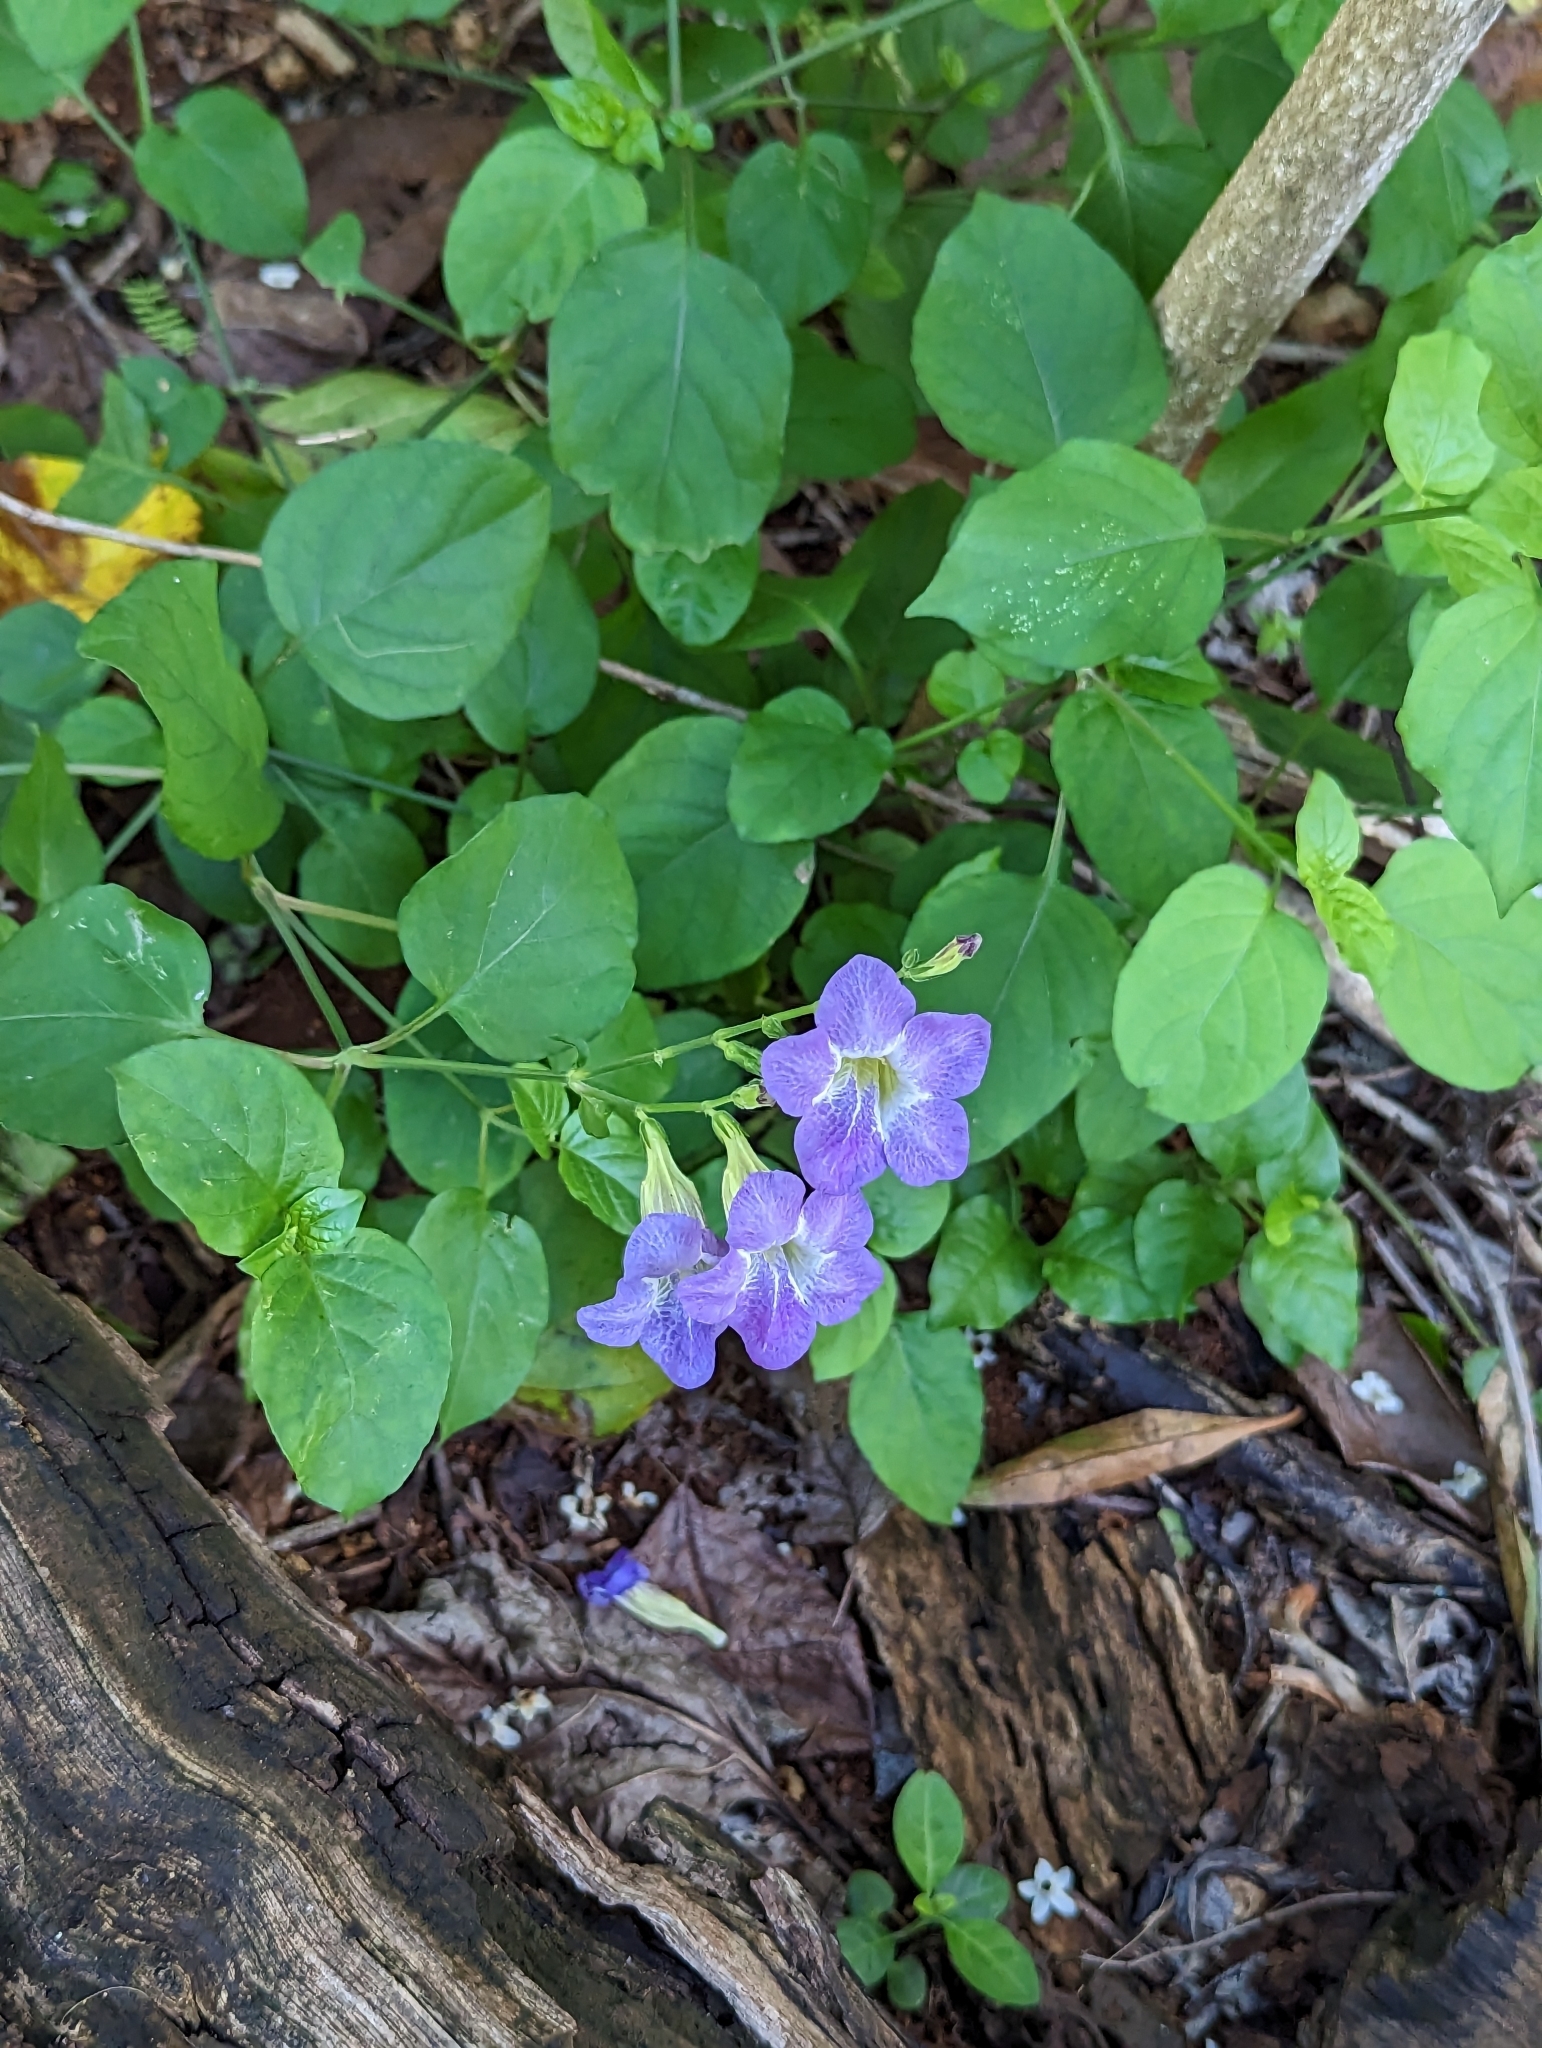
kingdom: Plantae
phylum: Tracheophyta
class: Magnoliopsida
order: Lamiales
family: Acanthaceae
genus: Asystasia
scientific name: Asystasia gangetica
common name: Chinese violet
